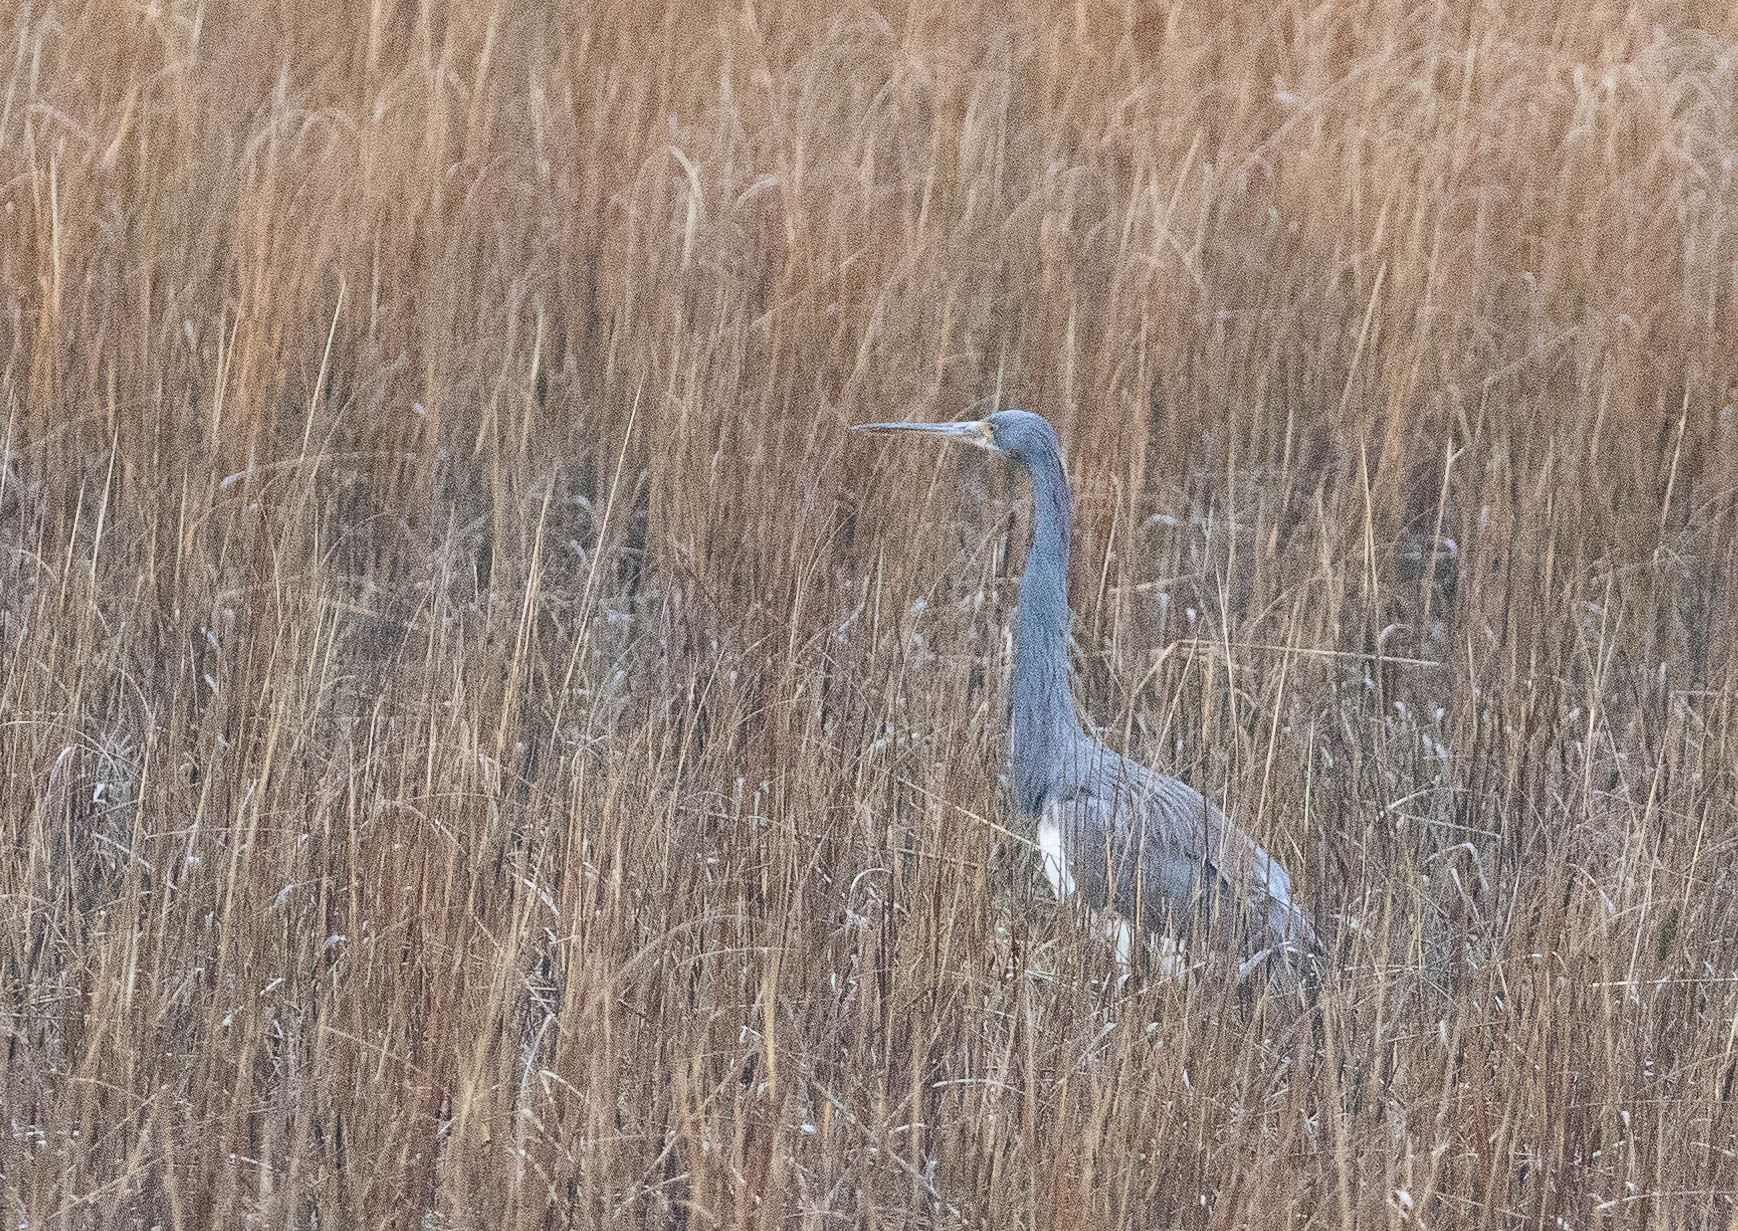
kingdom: Animalia
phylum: Chordata
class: Aves
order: Pelecaniformes
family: Ardeidae
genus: Egretta
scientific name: Egretta tricolor
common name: Tricolored heron
